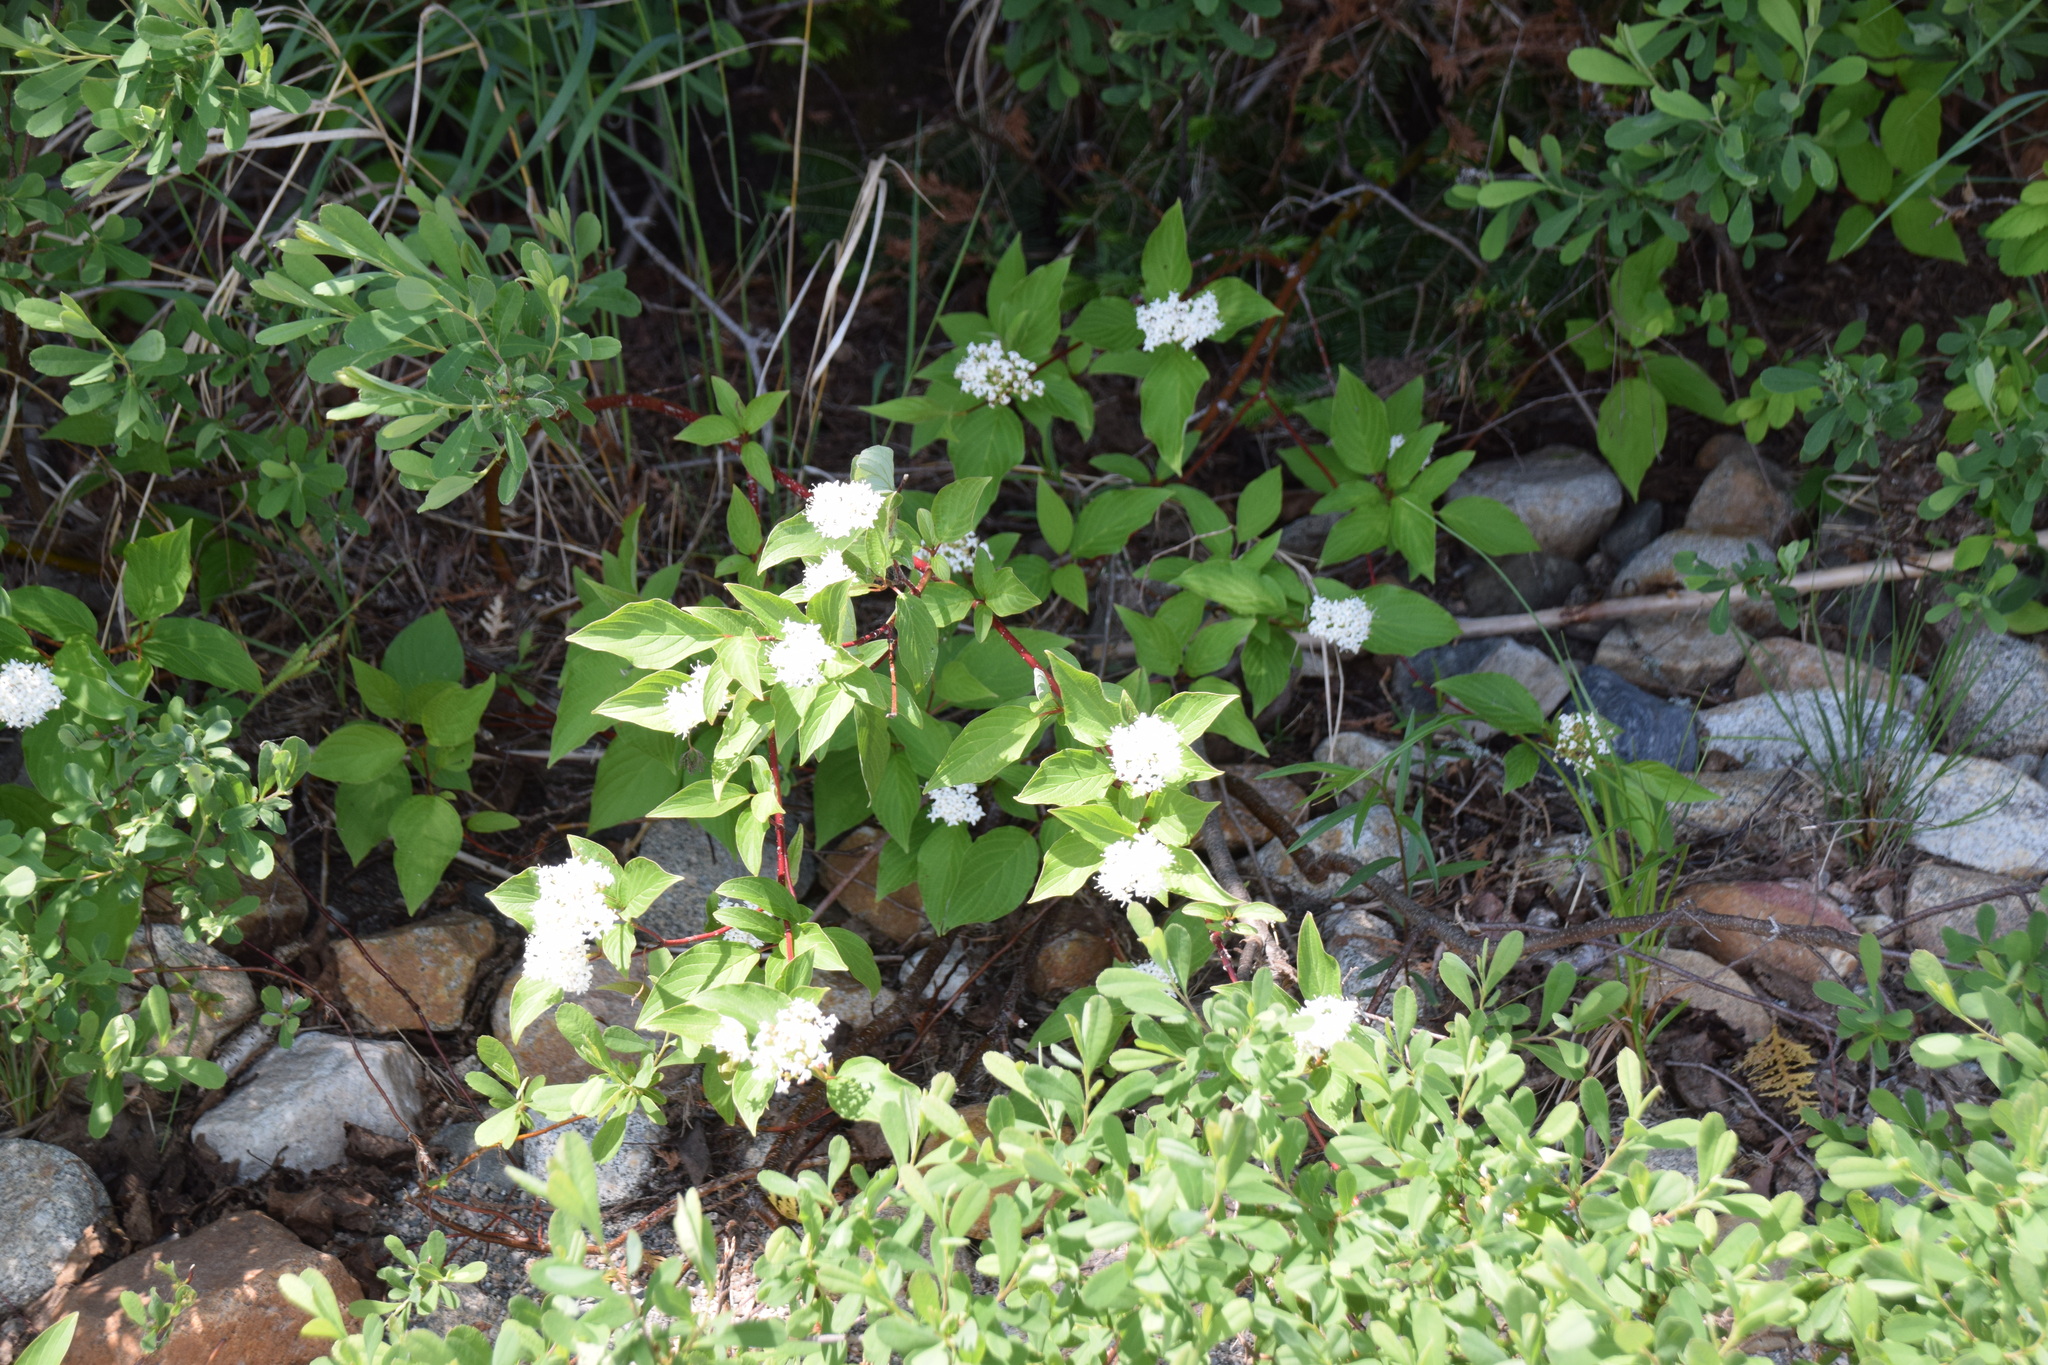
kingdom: Plantae
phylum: Tracheophyta
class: Magnoliopsida
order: Cornales
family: Cornaceae
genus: Cornus
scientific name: Cornus sericea
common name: Red-osier dogwood
